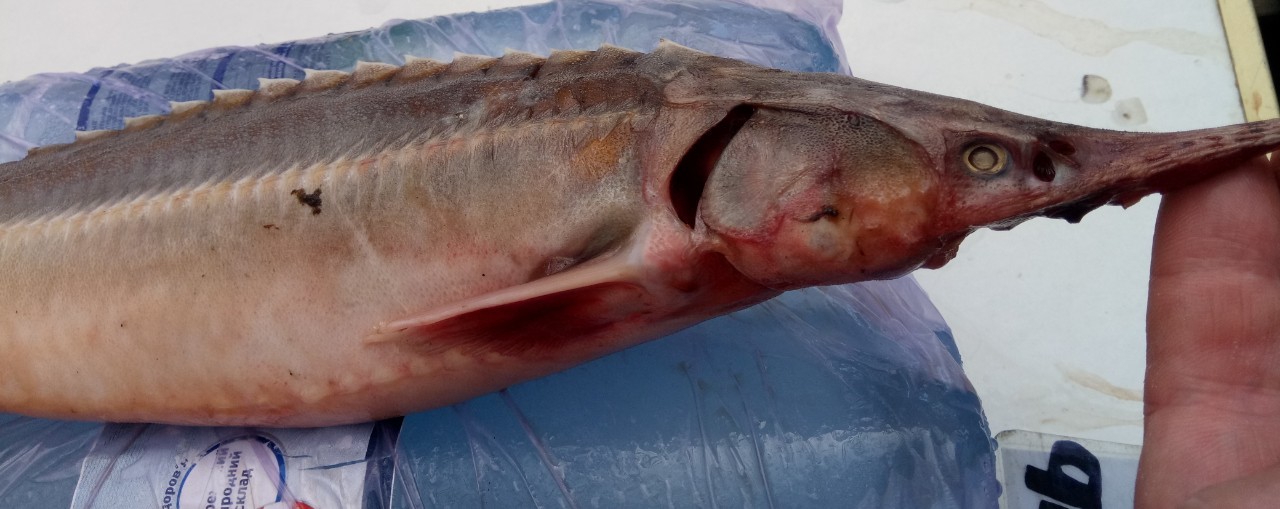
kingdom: Animalia
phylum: Chordata
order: Acipenseriformes
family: Acipenseridae
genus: Acipenser
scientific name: Acipenser ruthenus
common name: Sterlet
